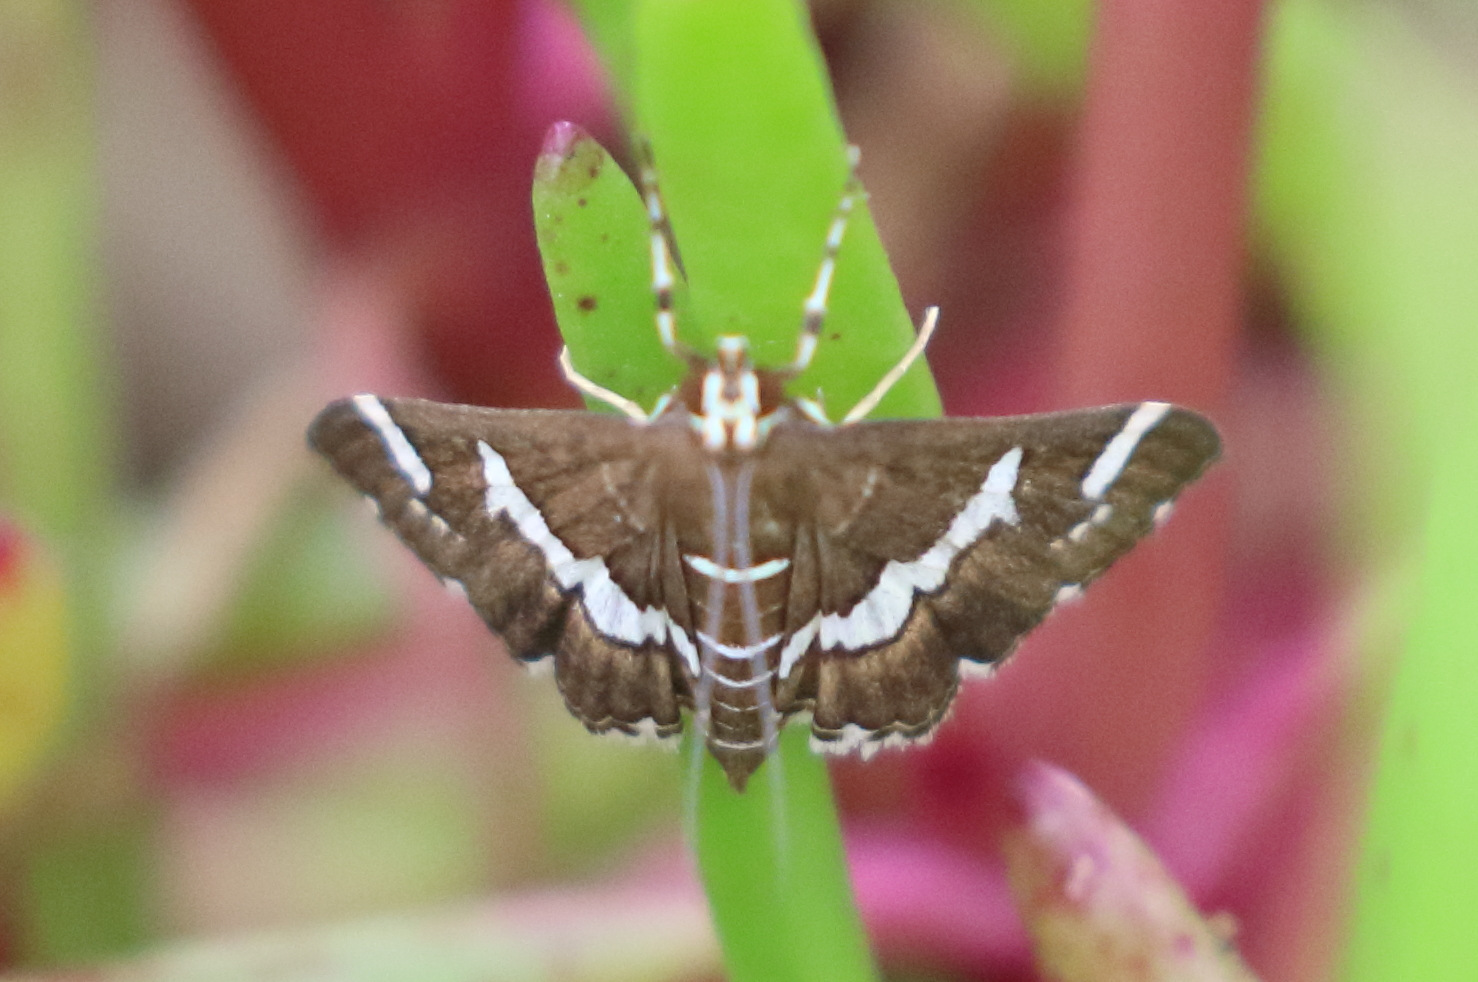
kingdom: Animalia
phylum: Arthropoda
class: Insecta
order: Lepidoptera
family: Crambidae
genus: Spoladea
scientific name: Spoladea recurvalis
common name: Beet webworm moth
